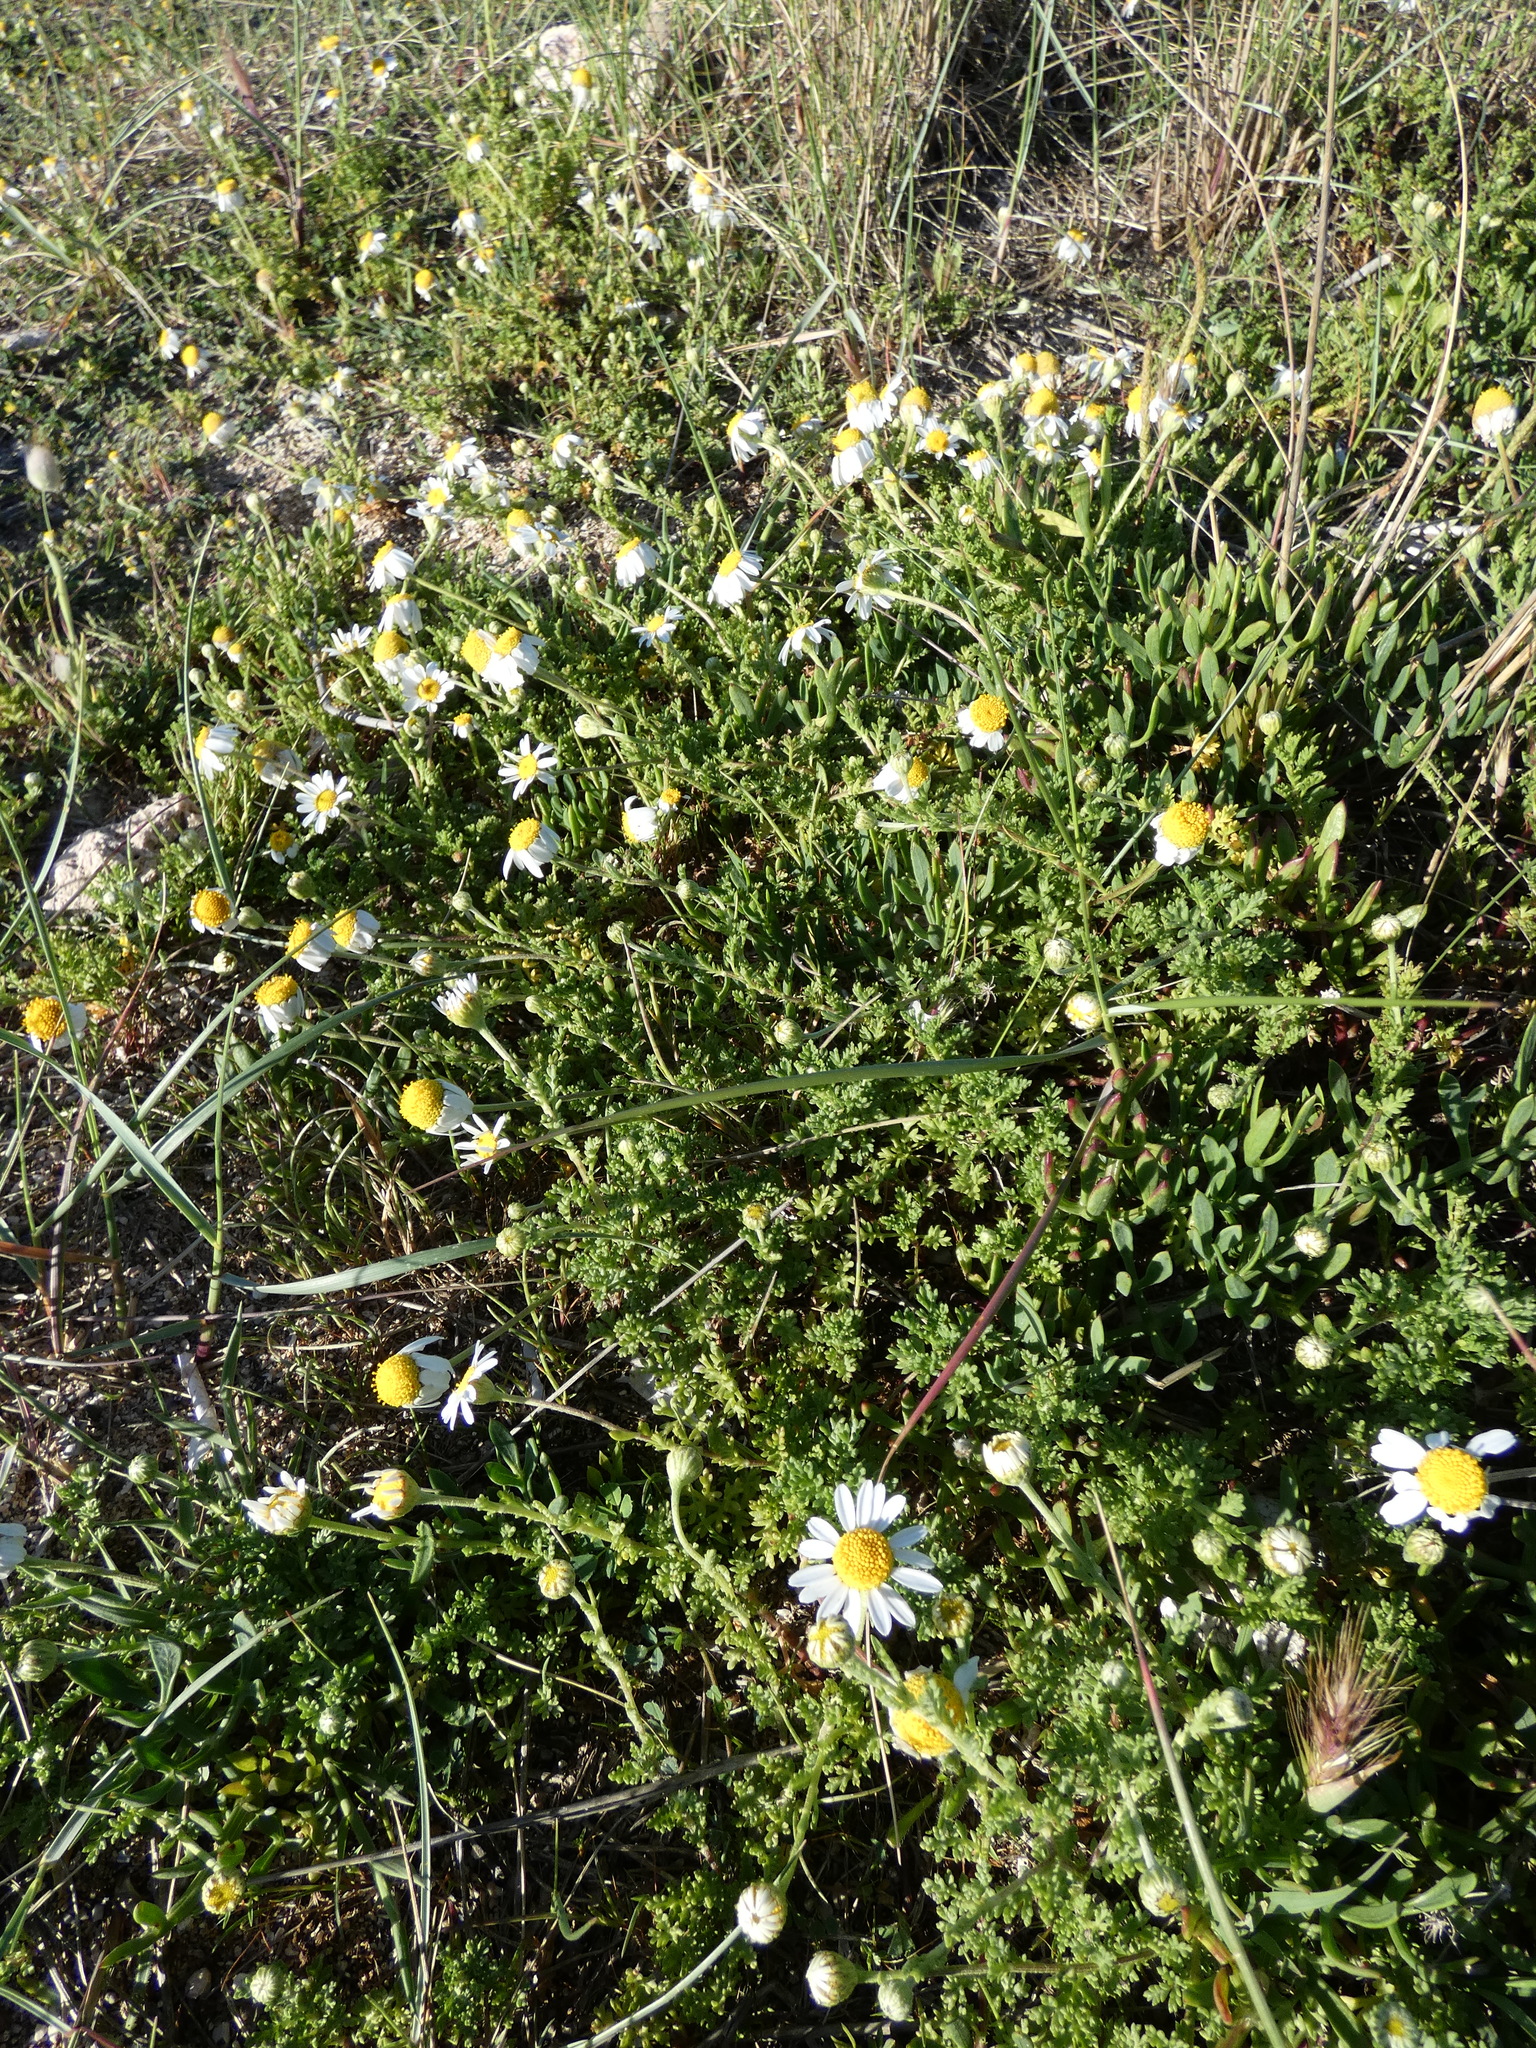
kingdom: Plantae
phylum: Tracheophyta
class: Magnoliopsida
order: Asterales
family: Asteraceae
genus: Anthemis
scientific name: Anthemis secundiramea
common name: Prostrate chamomile
